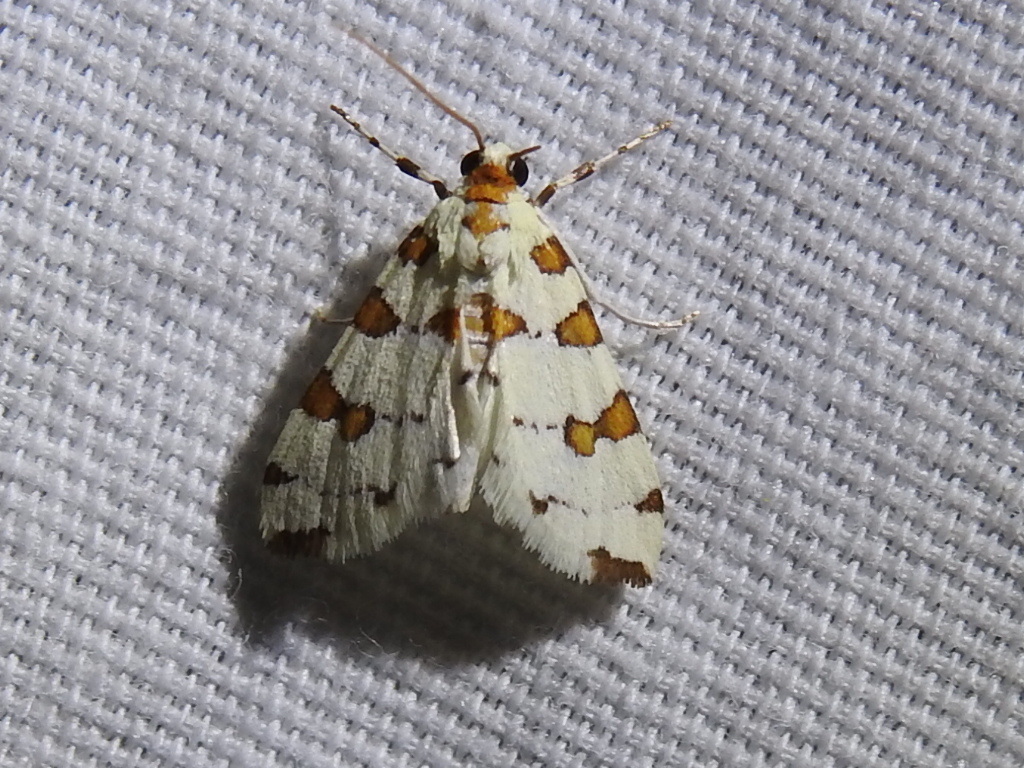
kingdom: Animalia
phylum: Arthropoda
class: Insecta
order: Lepidoptera
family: Crambidae
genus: Conchylodes
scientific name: Conchylodes
